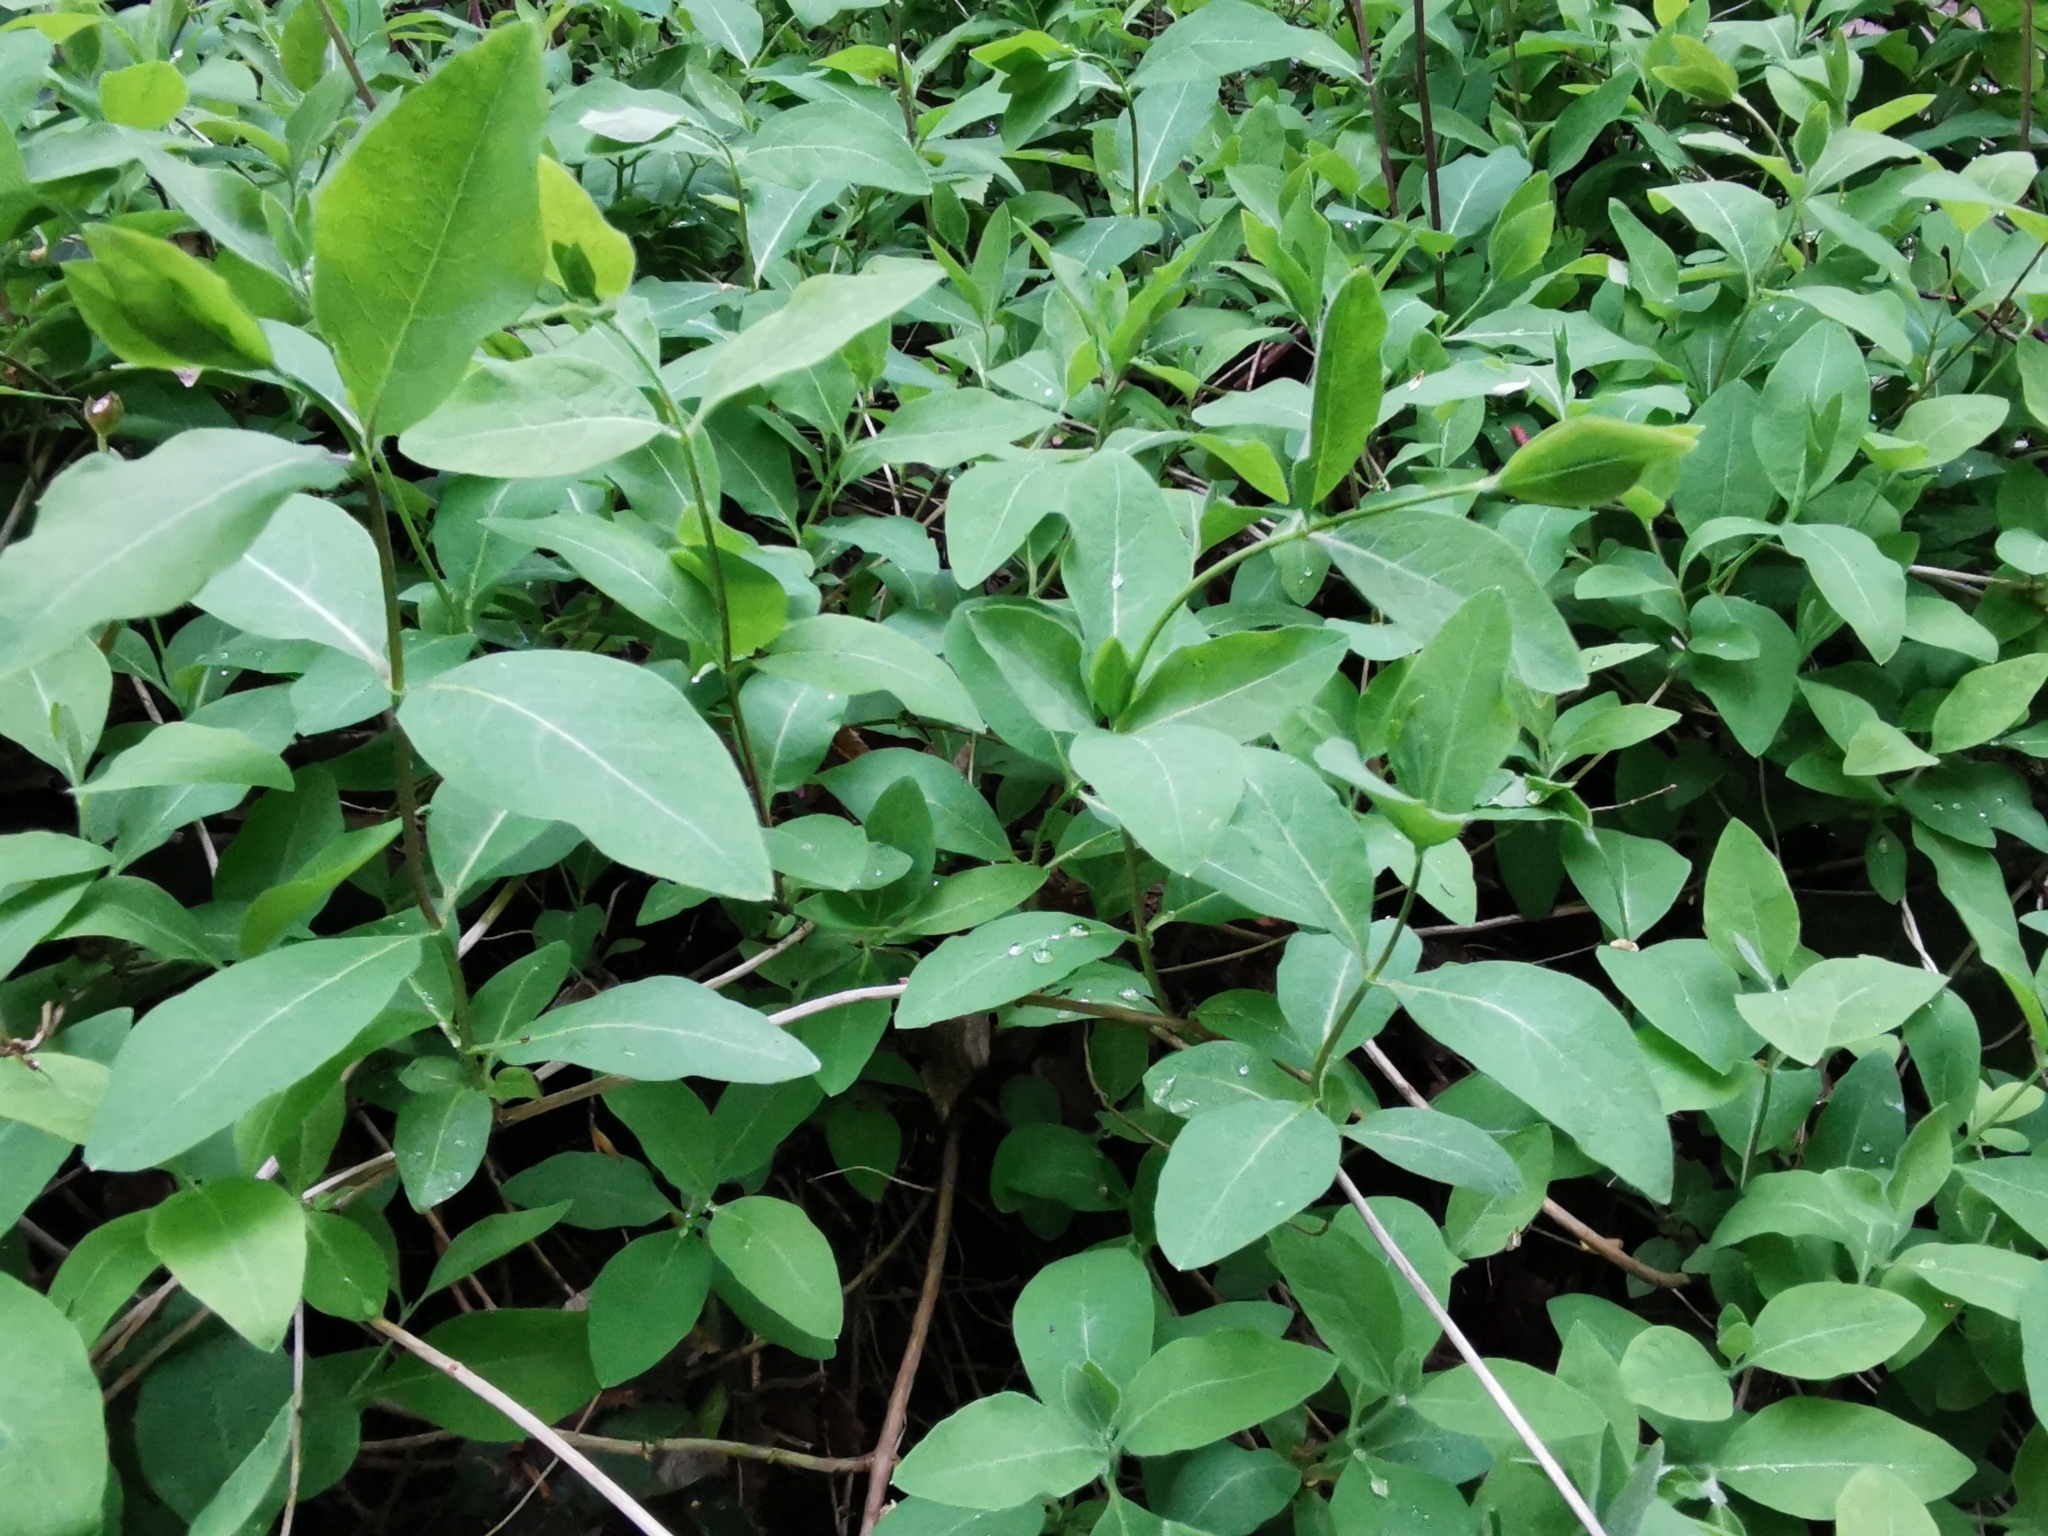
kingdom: Plantae
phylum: Tracheophyta
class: Magnoliopsida
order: Dipsacales
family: Caprifoliaceae
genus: Lonicera
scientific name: Lonicera periclymenum
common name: European honeysuckle
